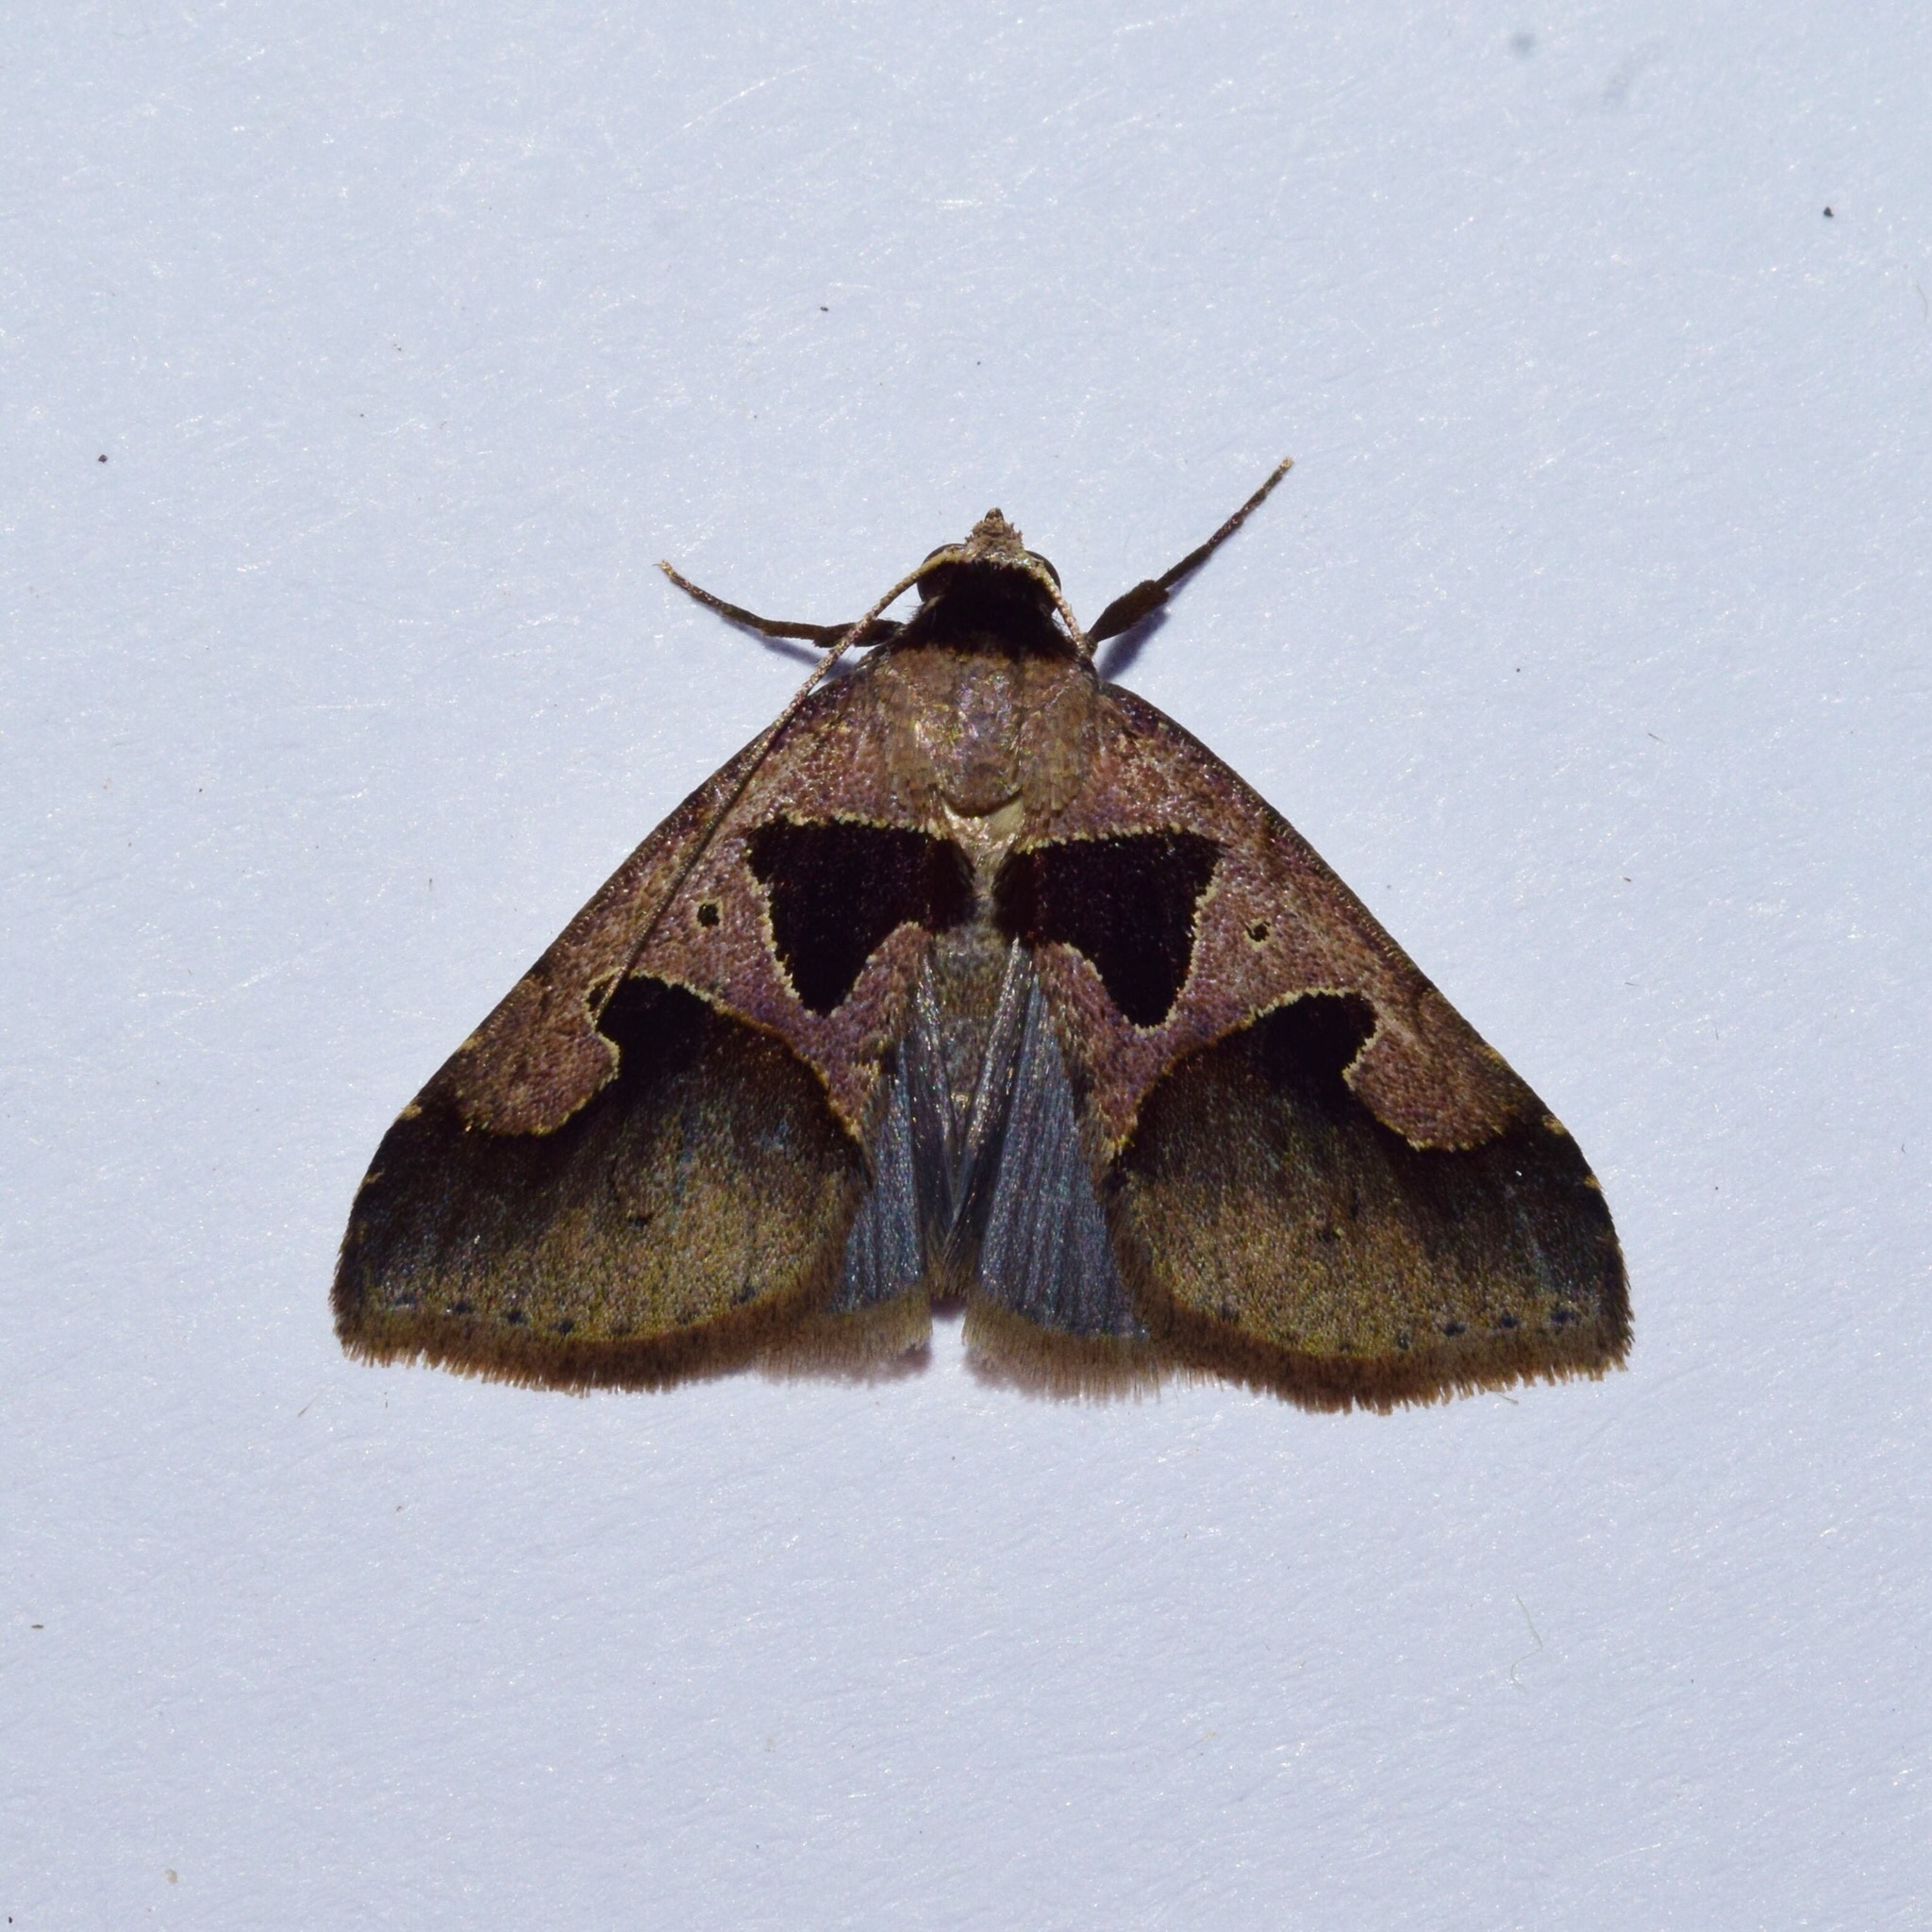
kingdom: Animalia
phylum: Arthropoda
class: Insecta
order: Lepidoptera
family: Erebidae
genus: Anoba
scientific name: Anoba disjuncta
